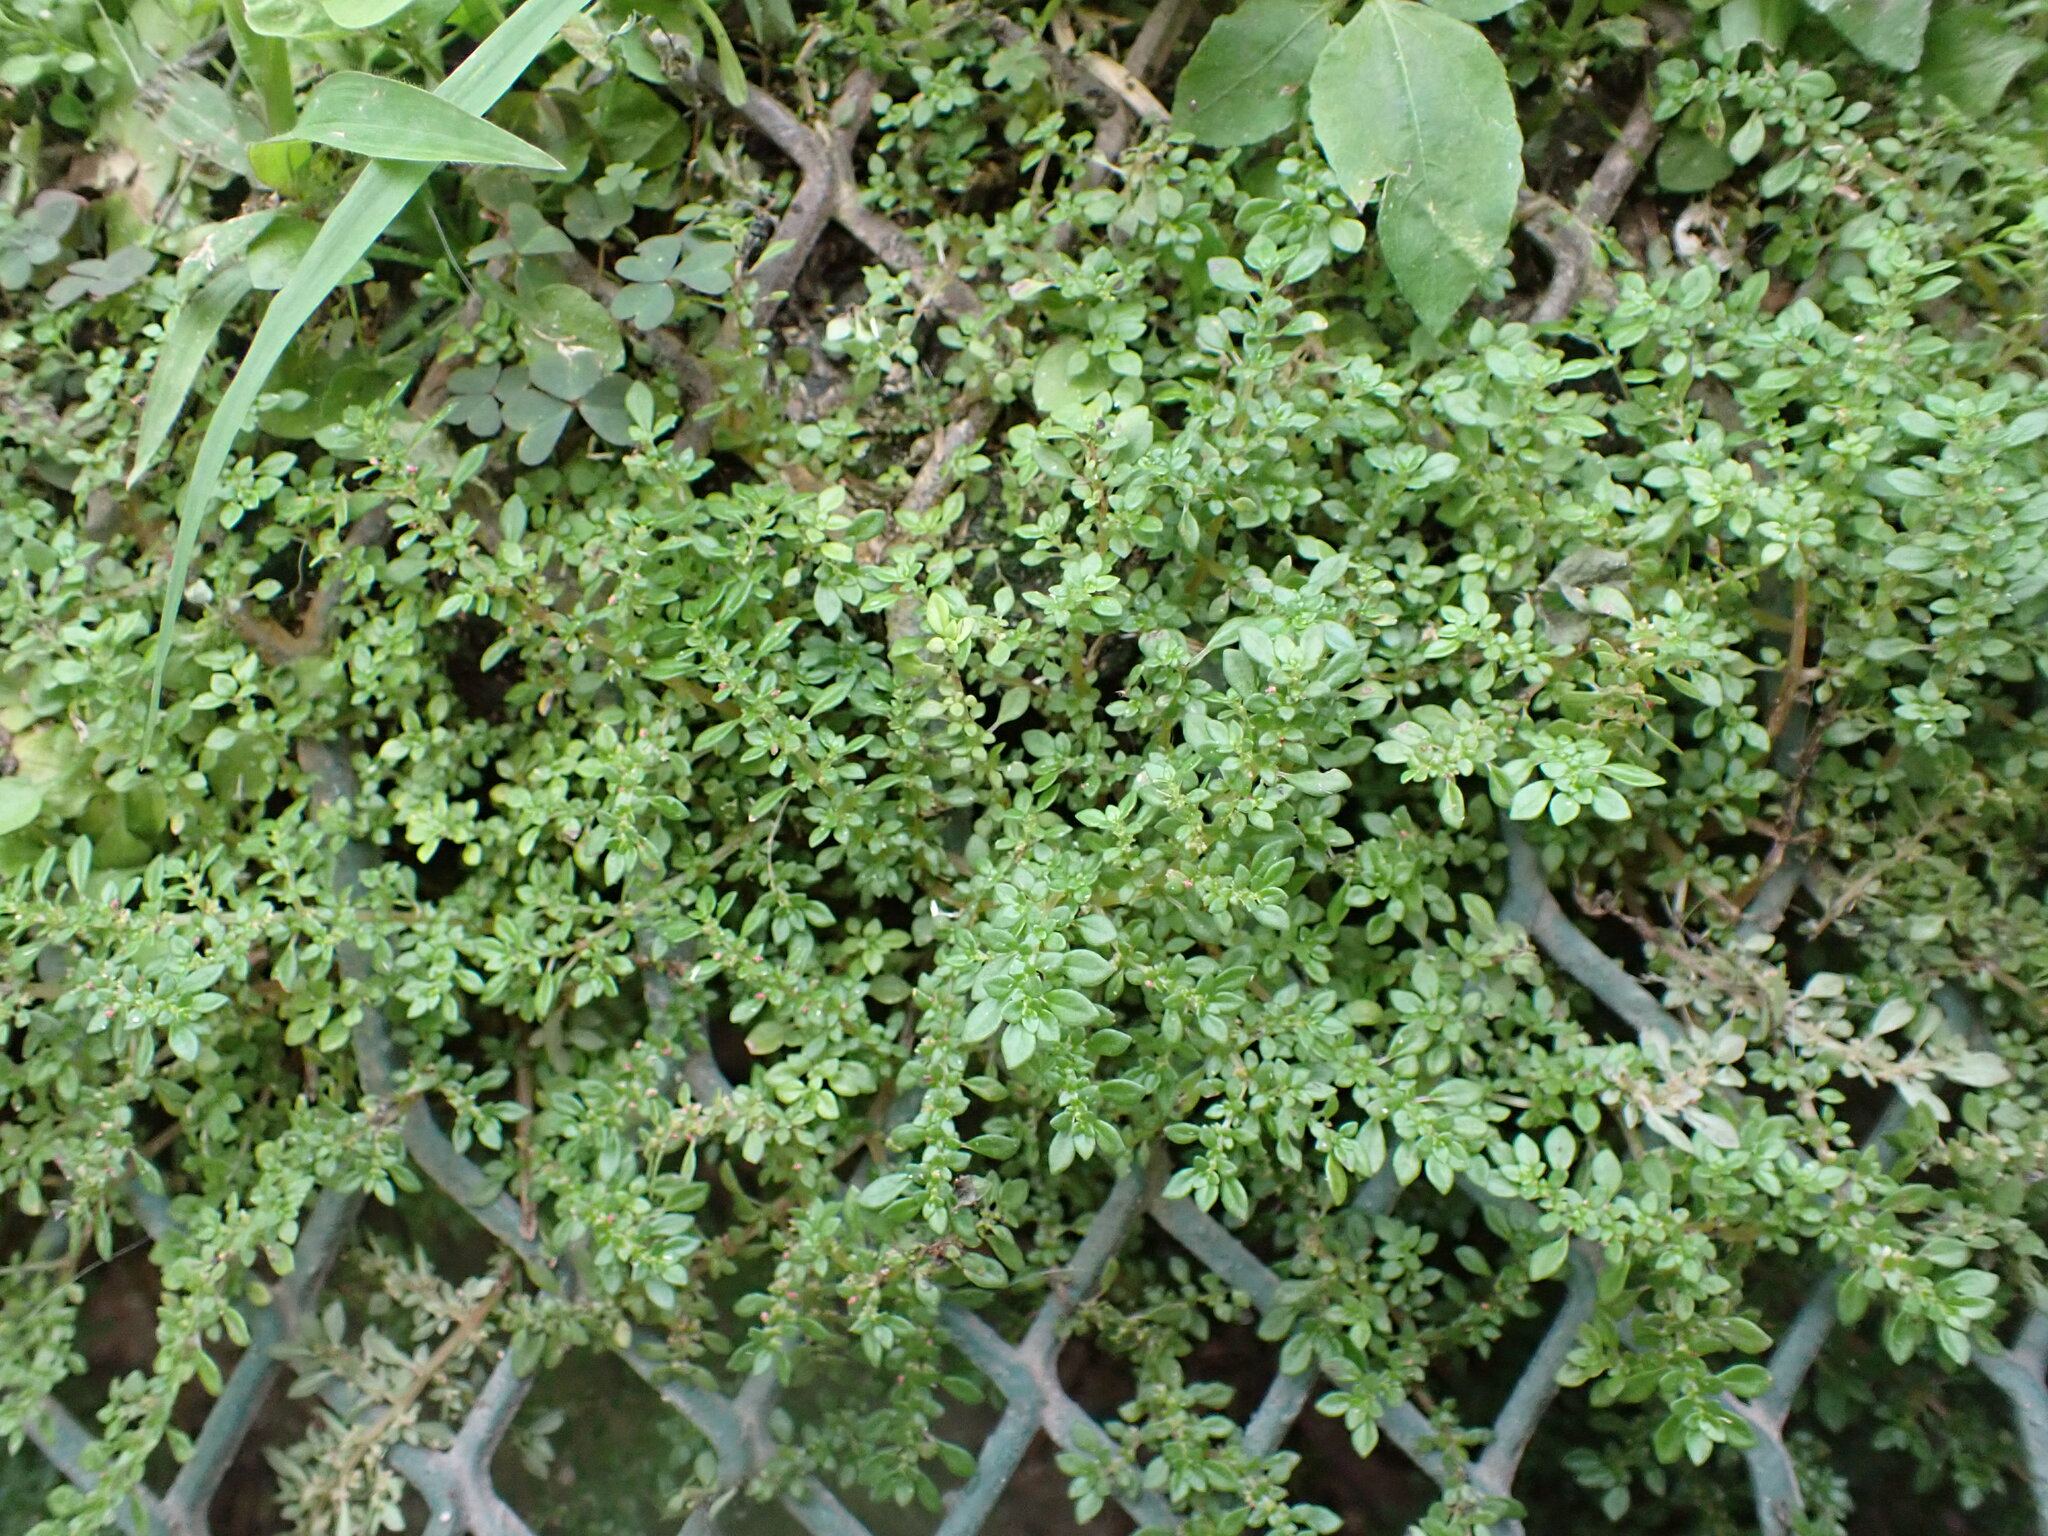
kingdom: Plantae
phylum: Tracheophyta
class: Magnoliopsida
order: Rosales
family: Urticaceae
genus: Pilea
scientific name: Pilea microphylla
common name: Artillery-plant
